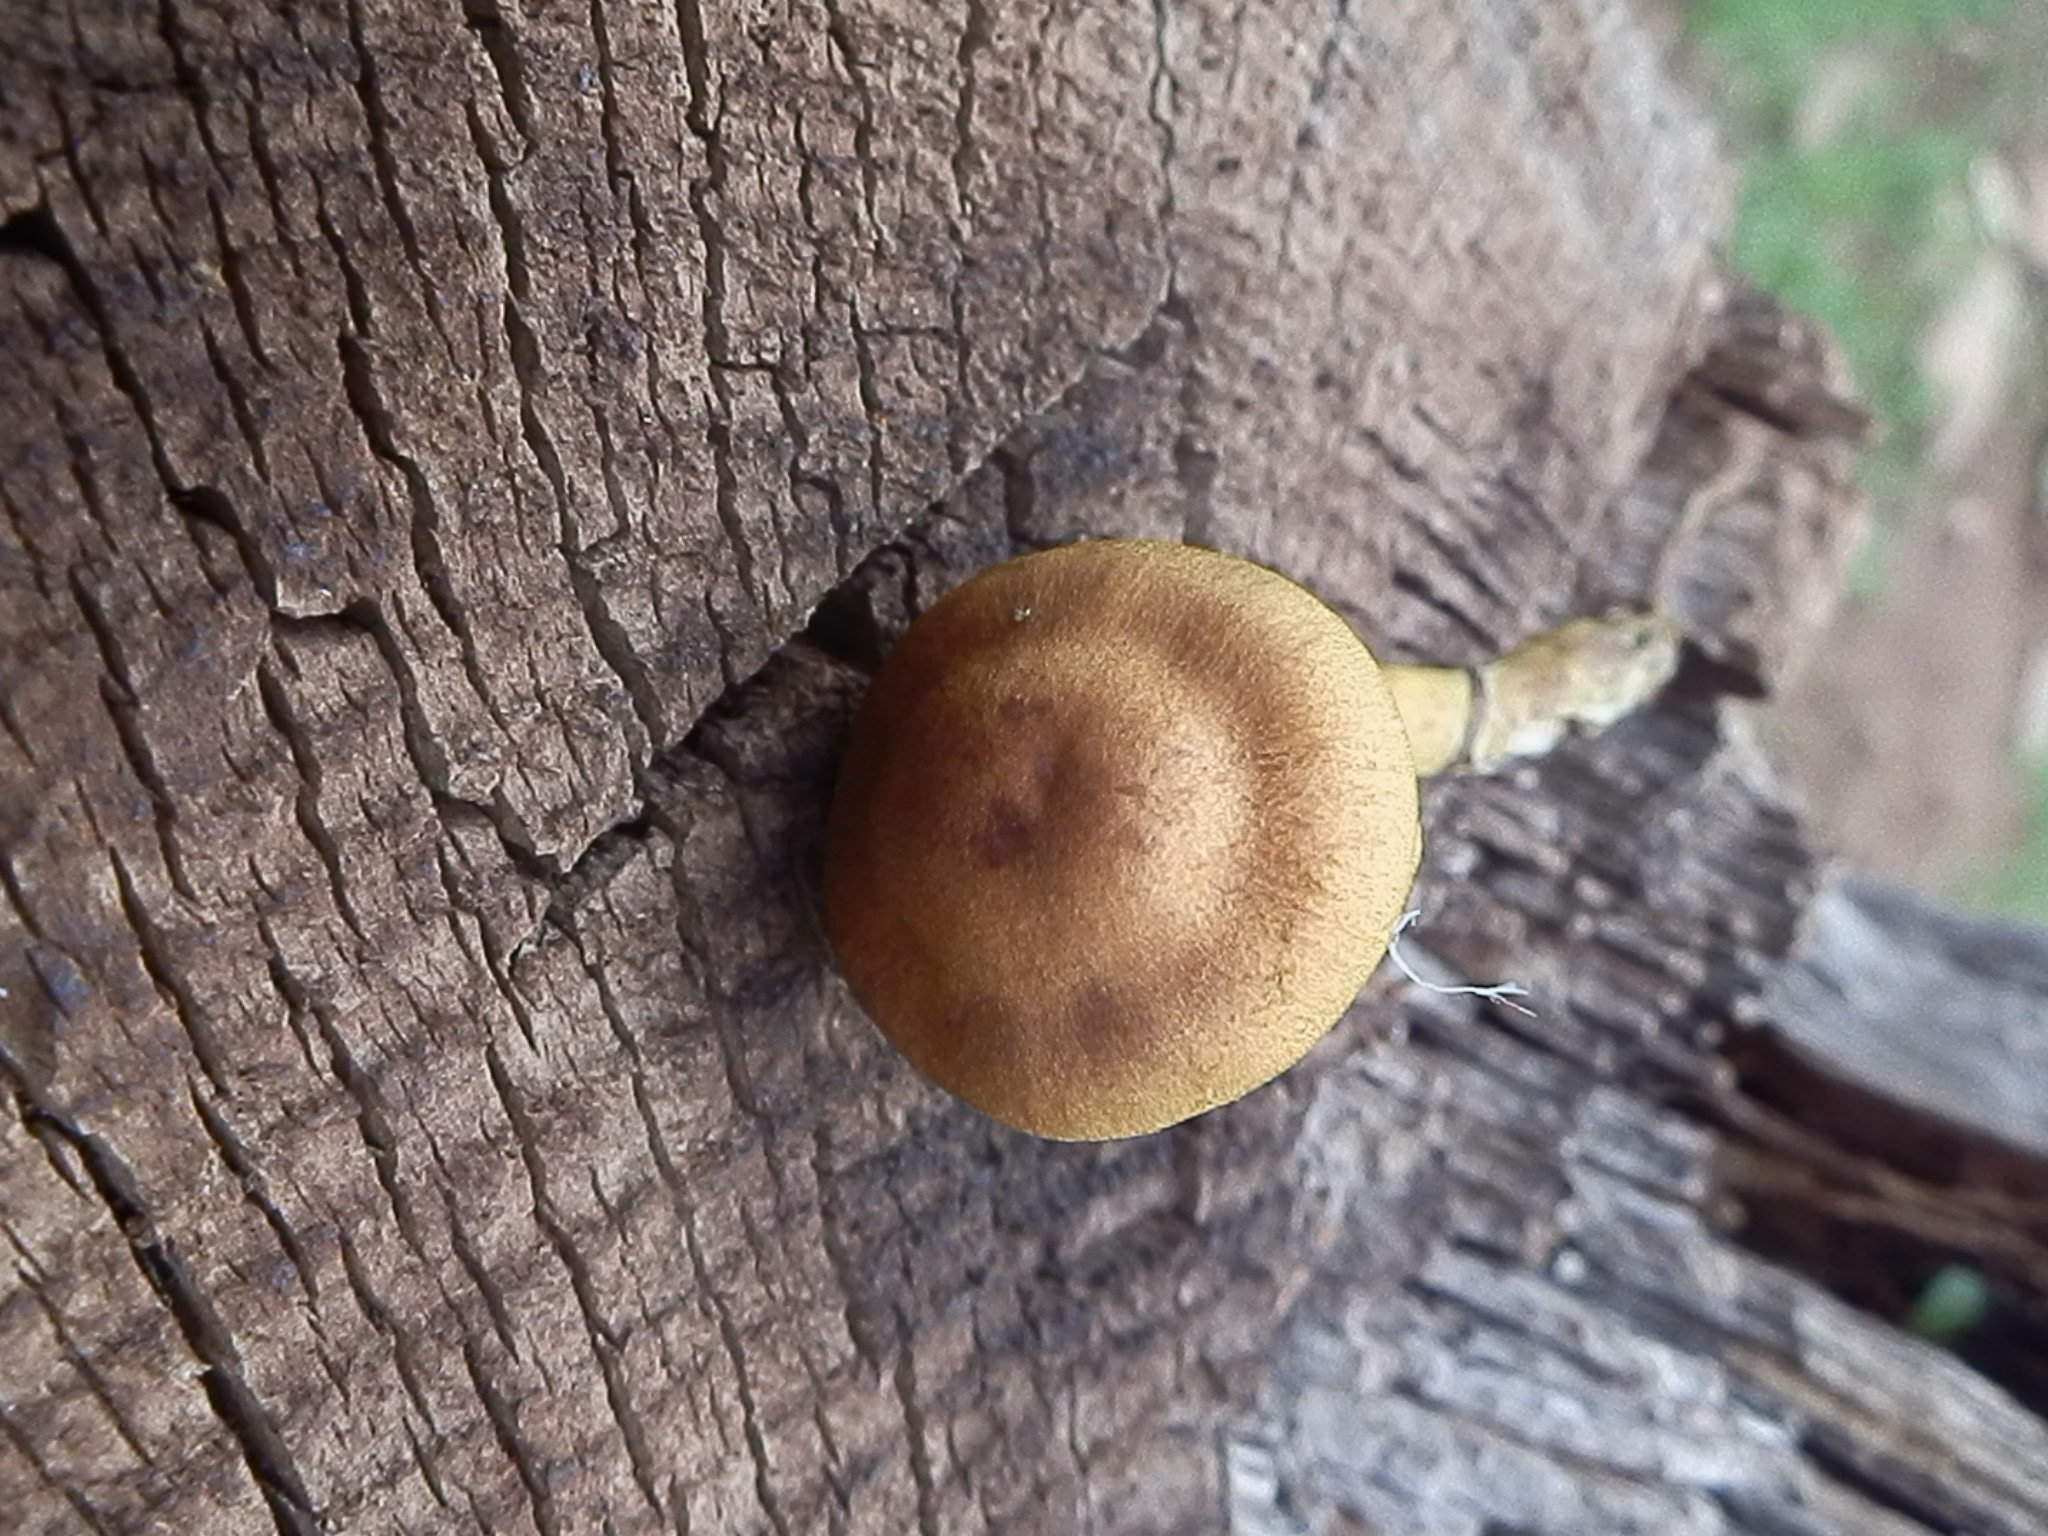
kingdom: Fungi
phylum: Basidiomycota
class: Agaricomycetes
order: Agaricales
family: Cortinariaceae
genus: Cortinarius
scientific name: Cortinarius rufulus
